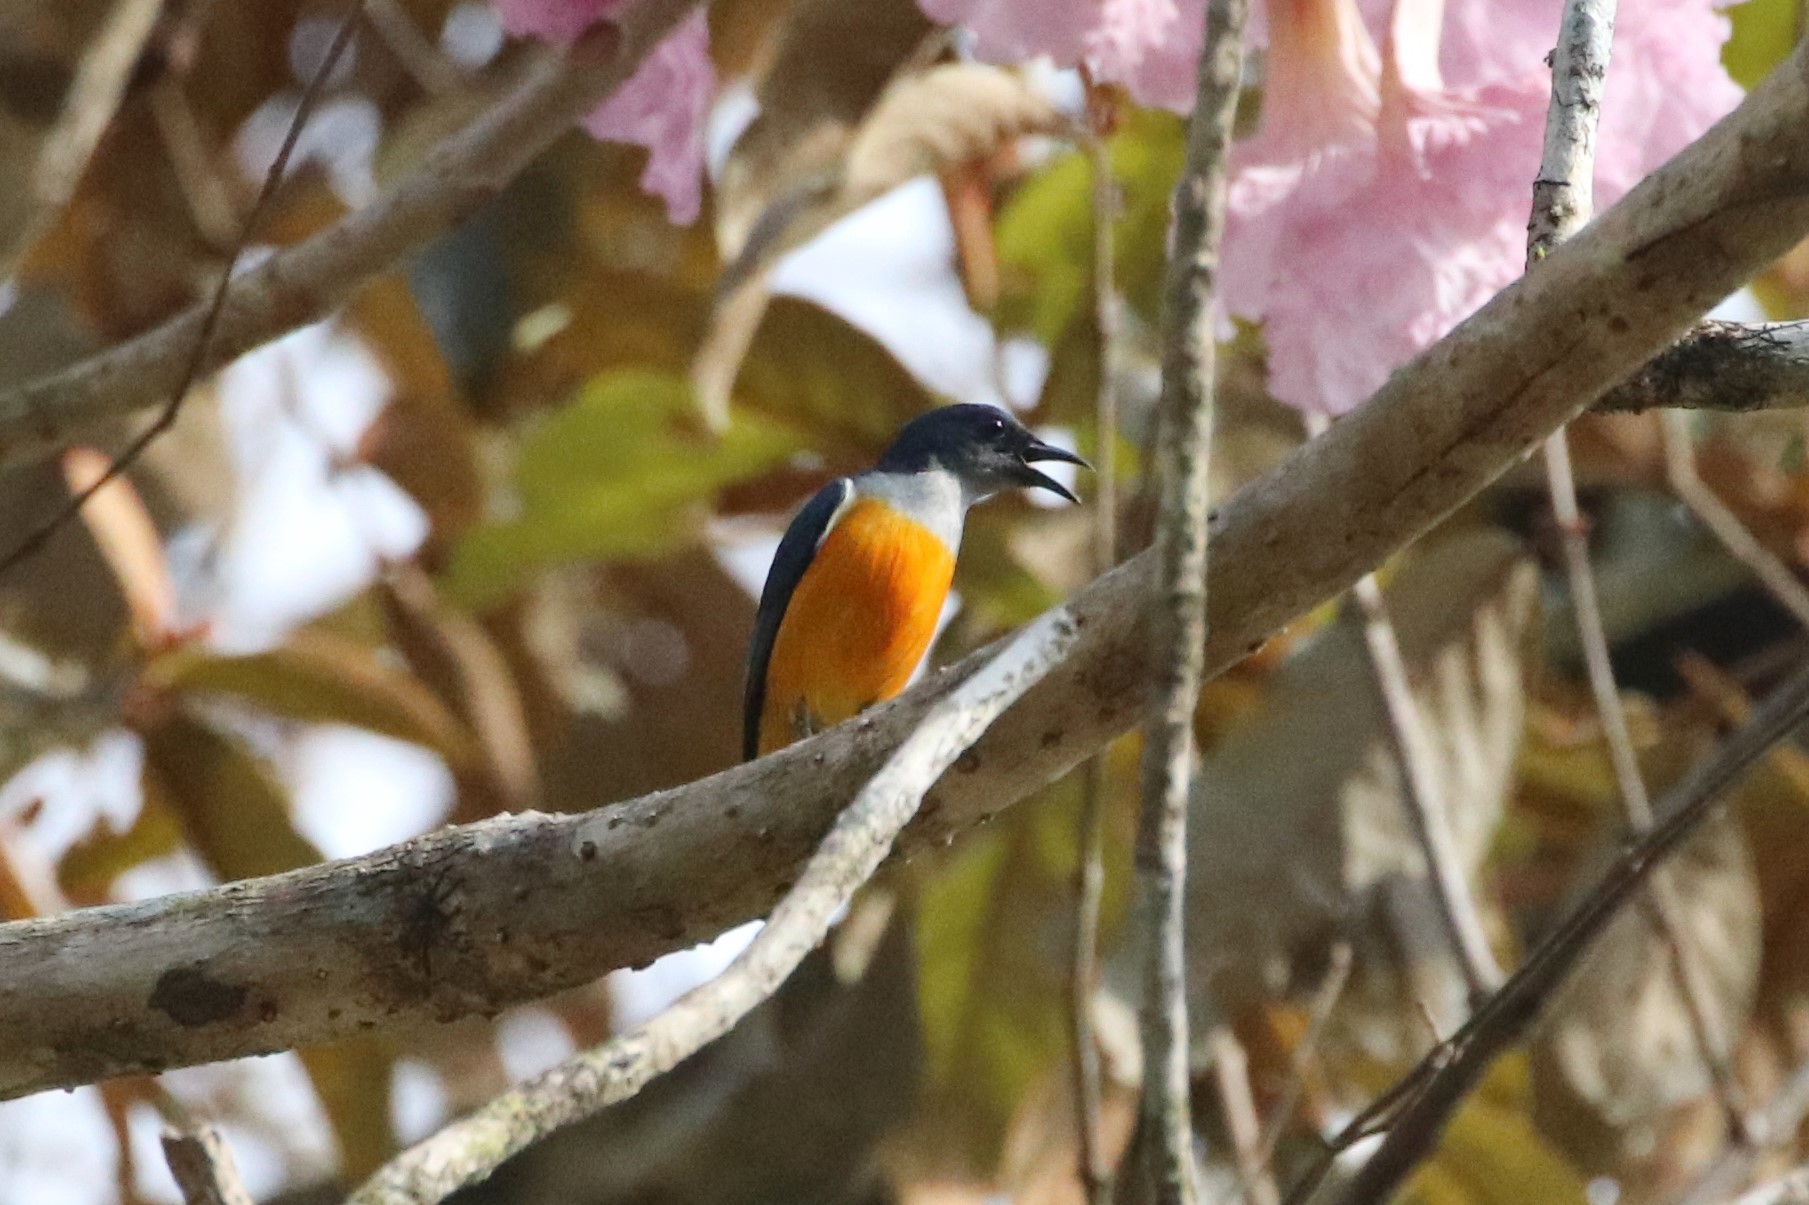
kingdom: Animalia
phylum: Chordata
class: Aves
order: Passeriformes
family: Dicaeidae
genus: Dicaeum
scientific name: Dicaeum trigonostigma
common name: Orange-bellied flowerpecker
